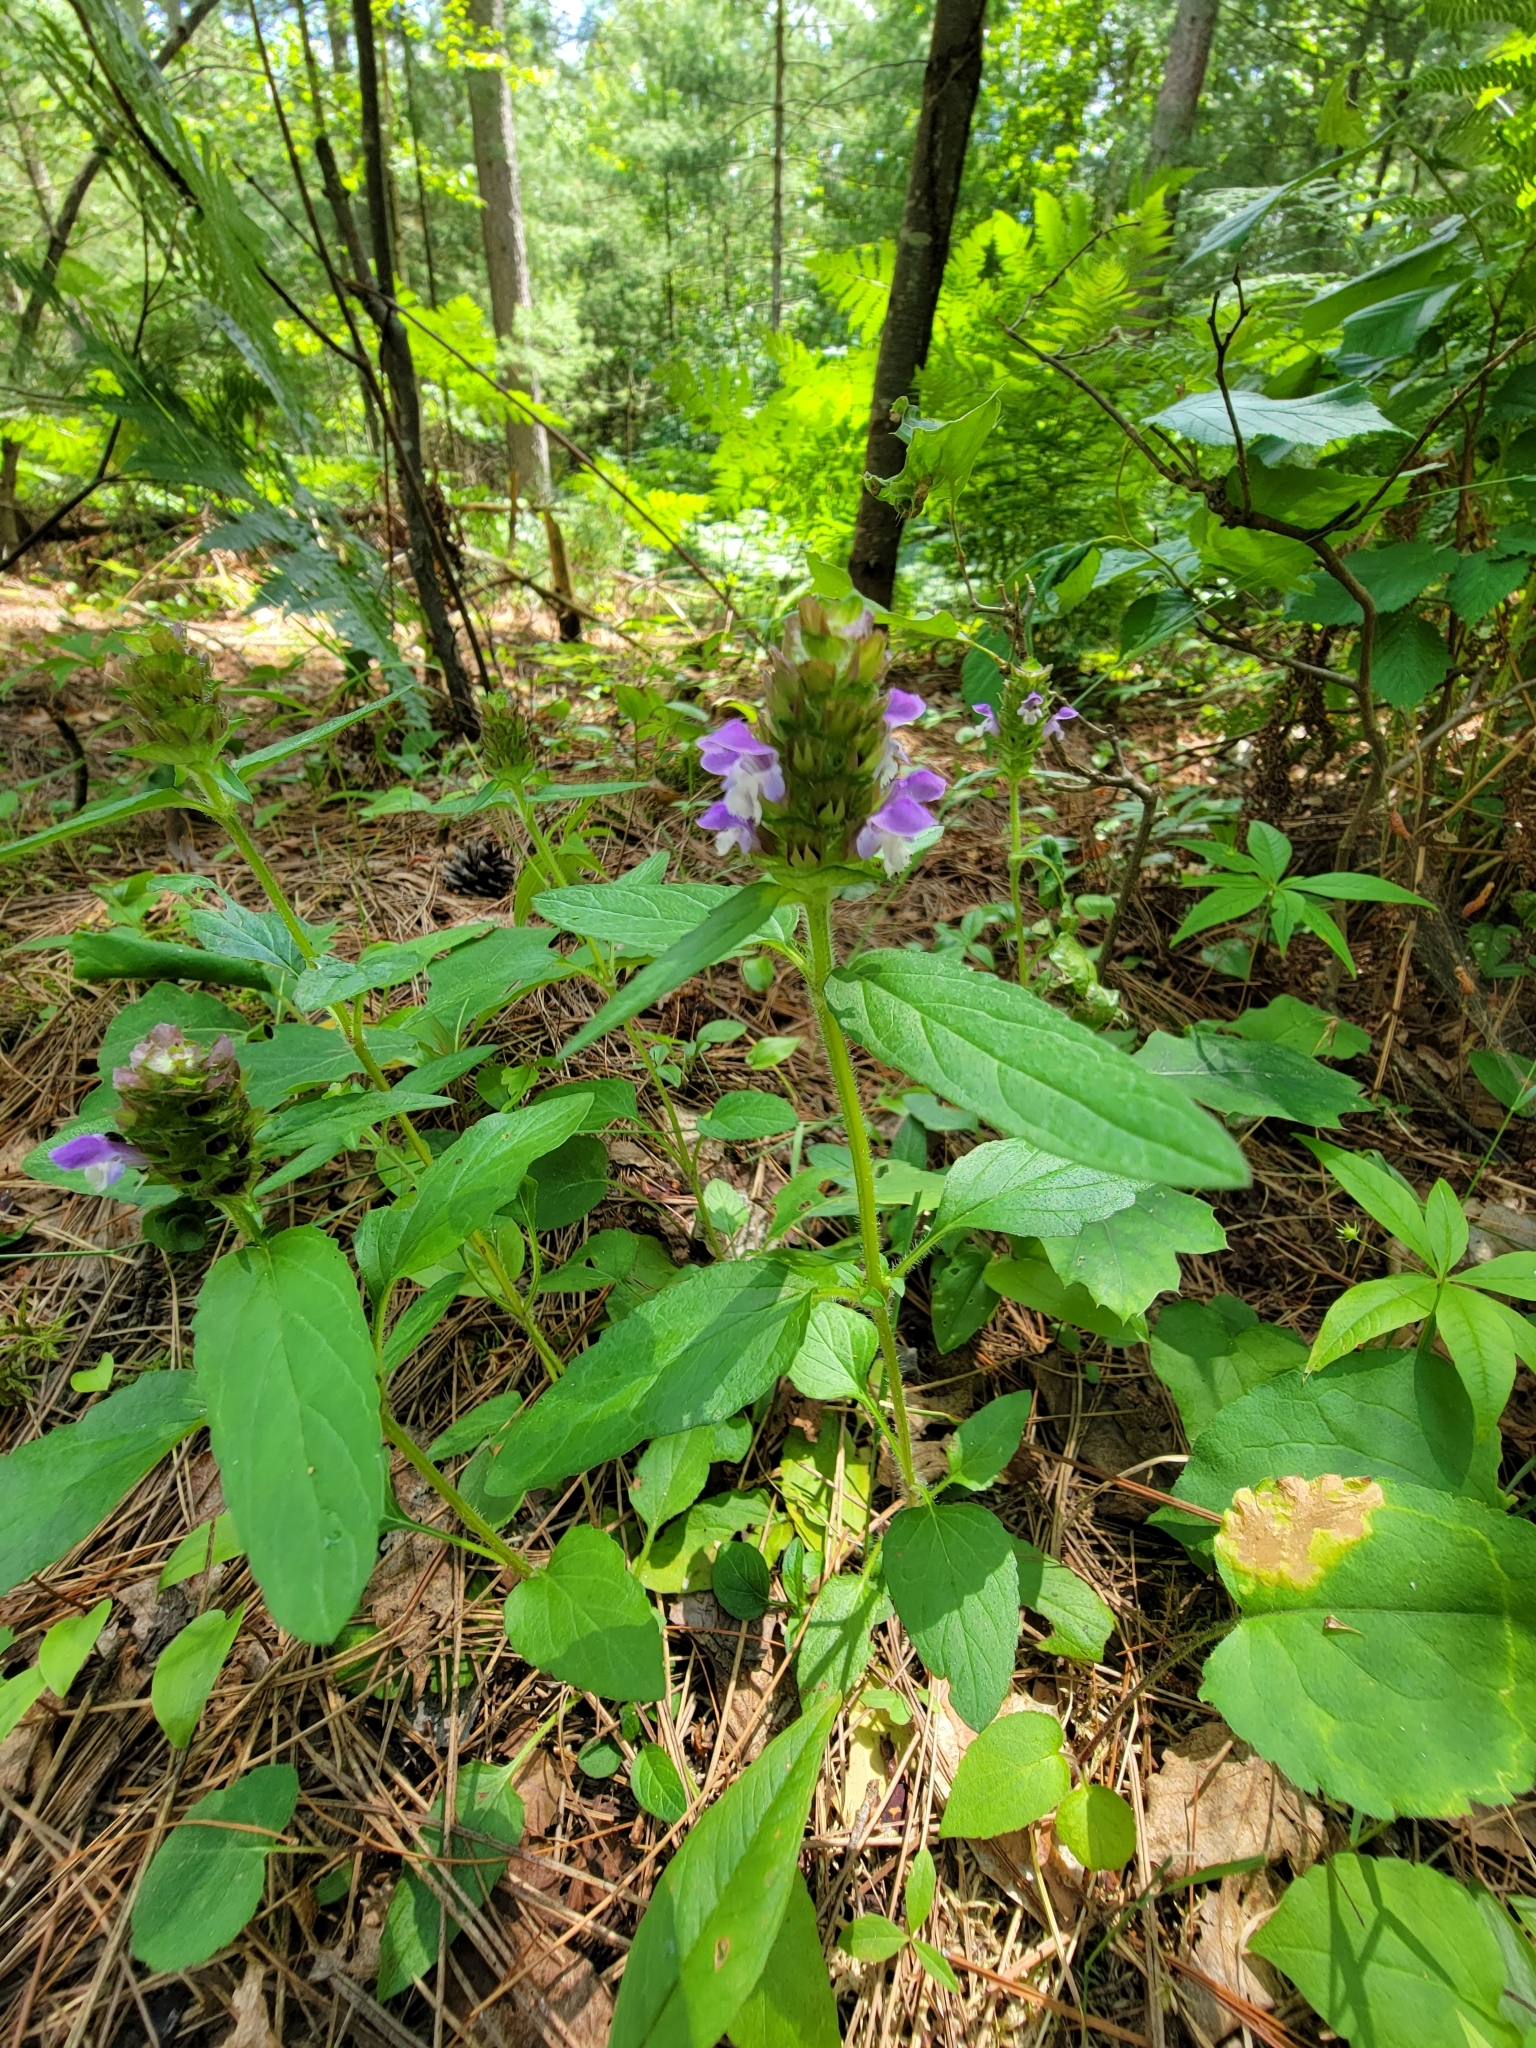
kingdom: Plantae
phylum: Tracheophyta
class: Magnoliopsida
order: Lamiales
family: Lamiaceae
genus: Prunella
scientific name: Prunella vulgaris
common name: Heal-all
